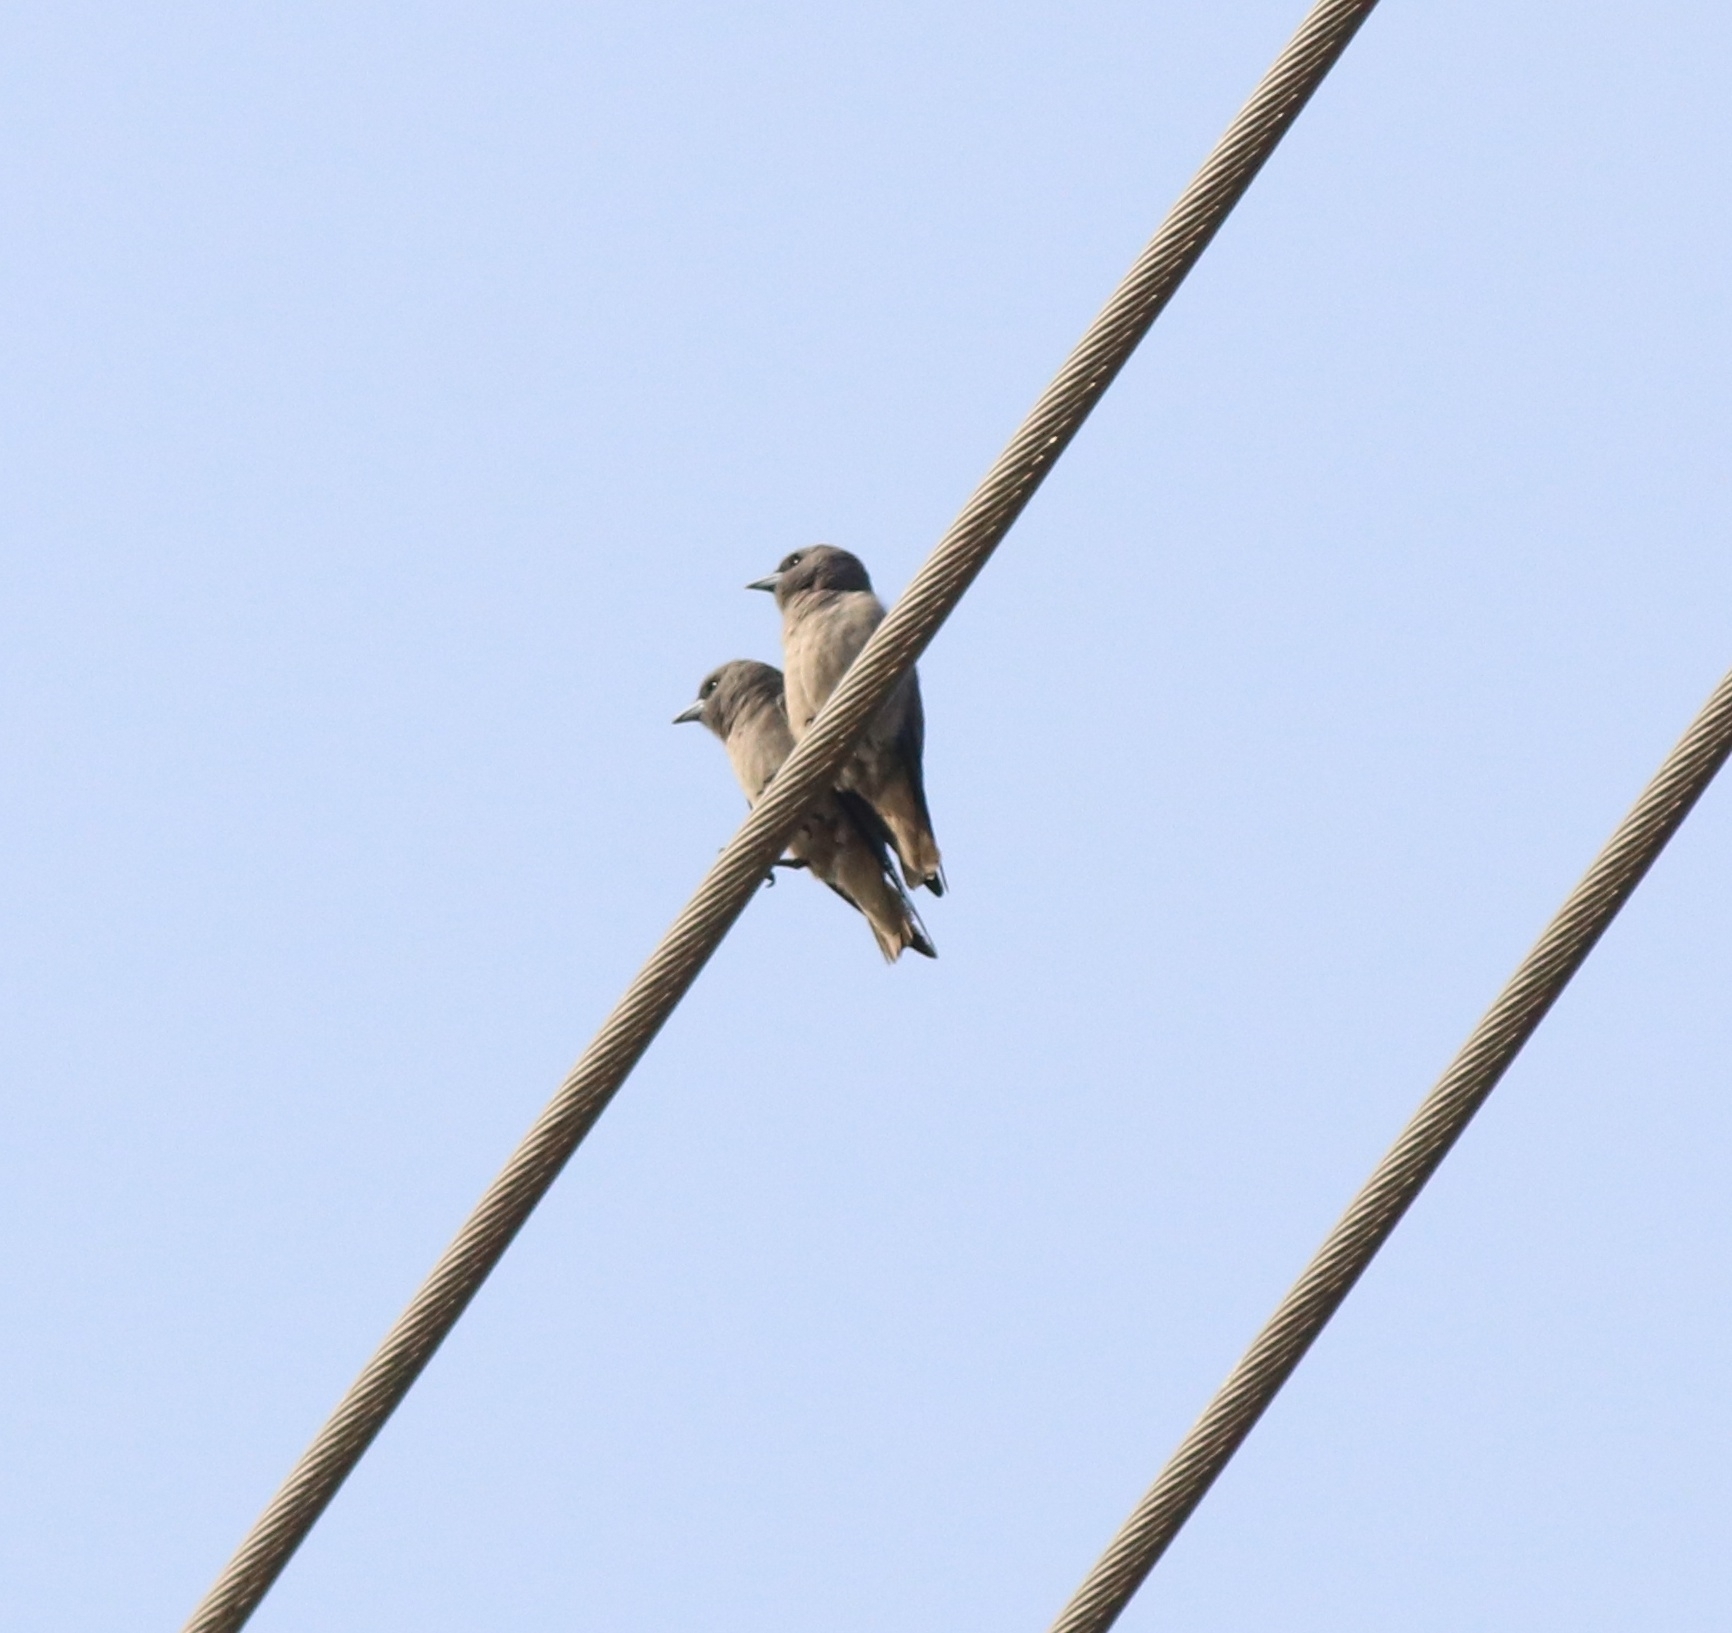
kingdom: Animalia
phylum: Chordata
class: Aves
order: Passeriformes
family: Artamidae
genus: Artamus
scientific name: Artamus fuscus
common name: Ashy woodswallow
